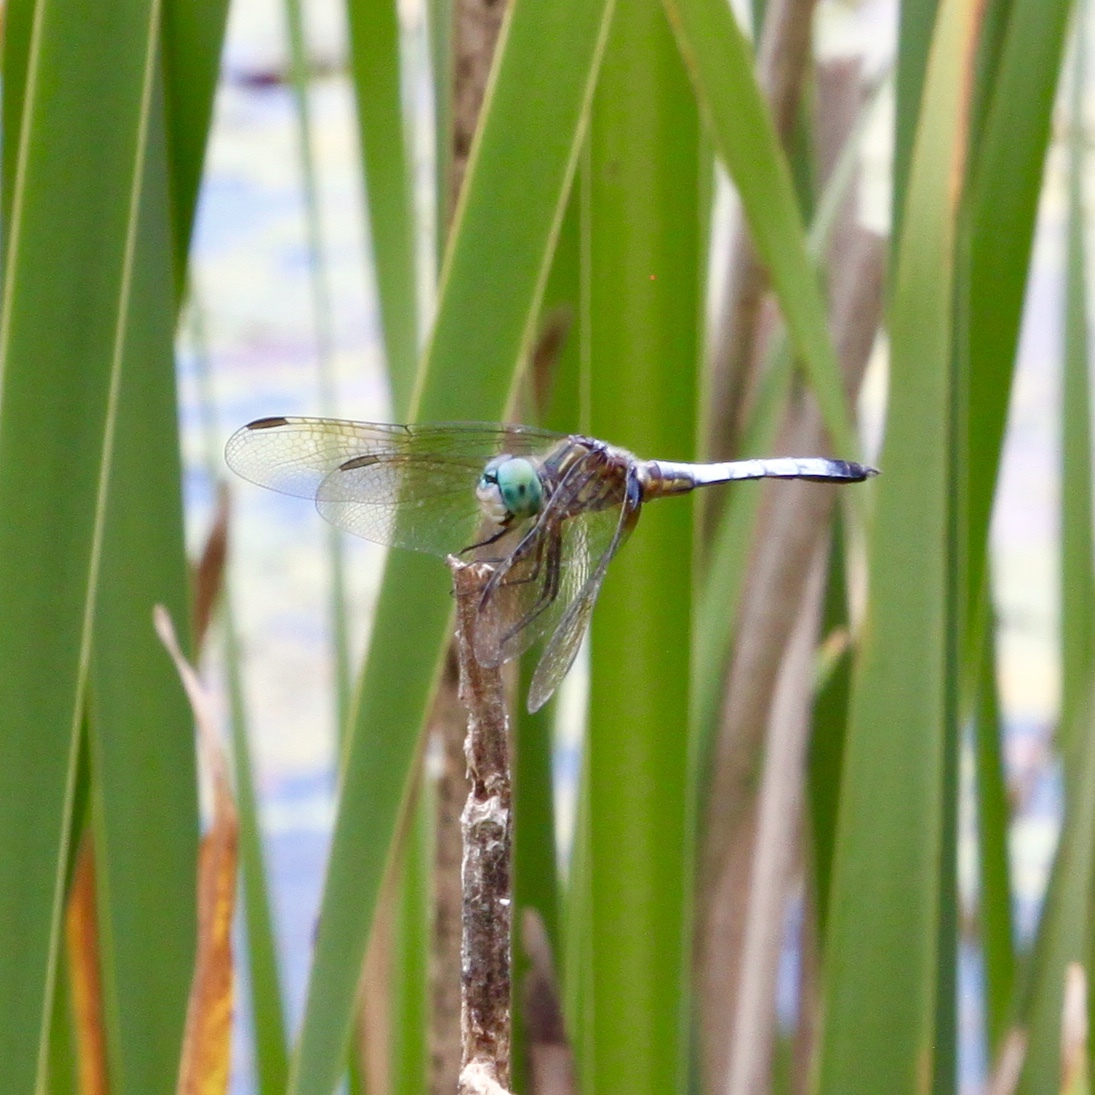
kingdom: Animalia
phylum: Arthropoda
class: Insecta
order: Odonata
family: Libellulidae
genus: Pachydiplax
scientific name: Pachydiplax longipennis
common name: Blue dasher
